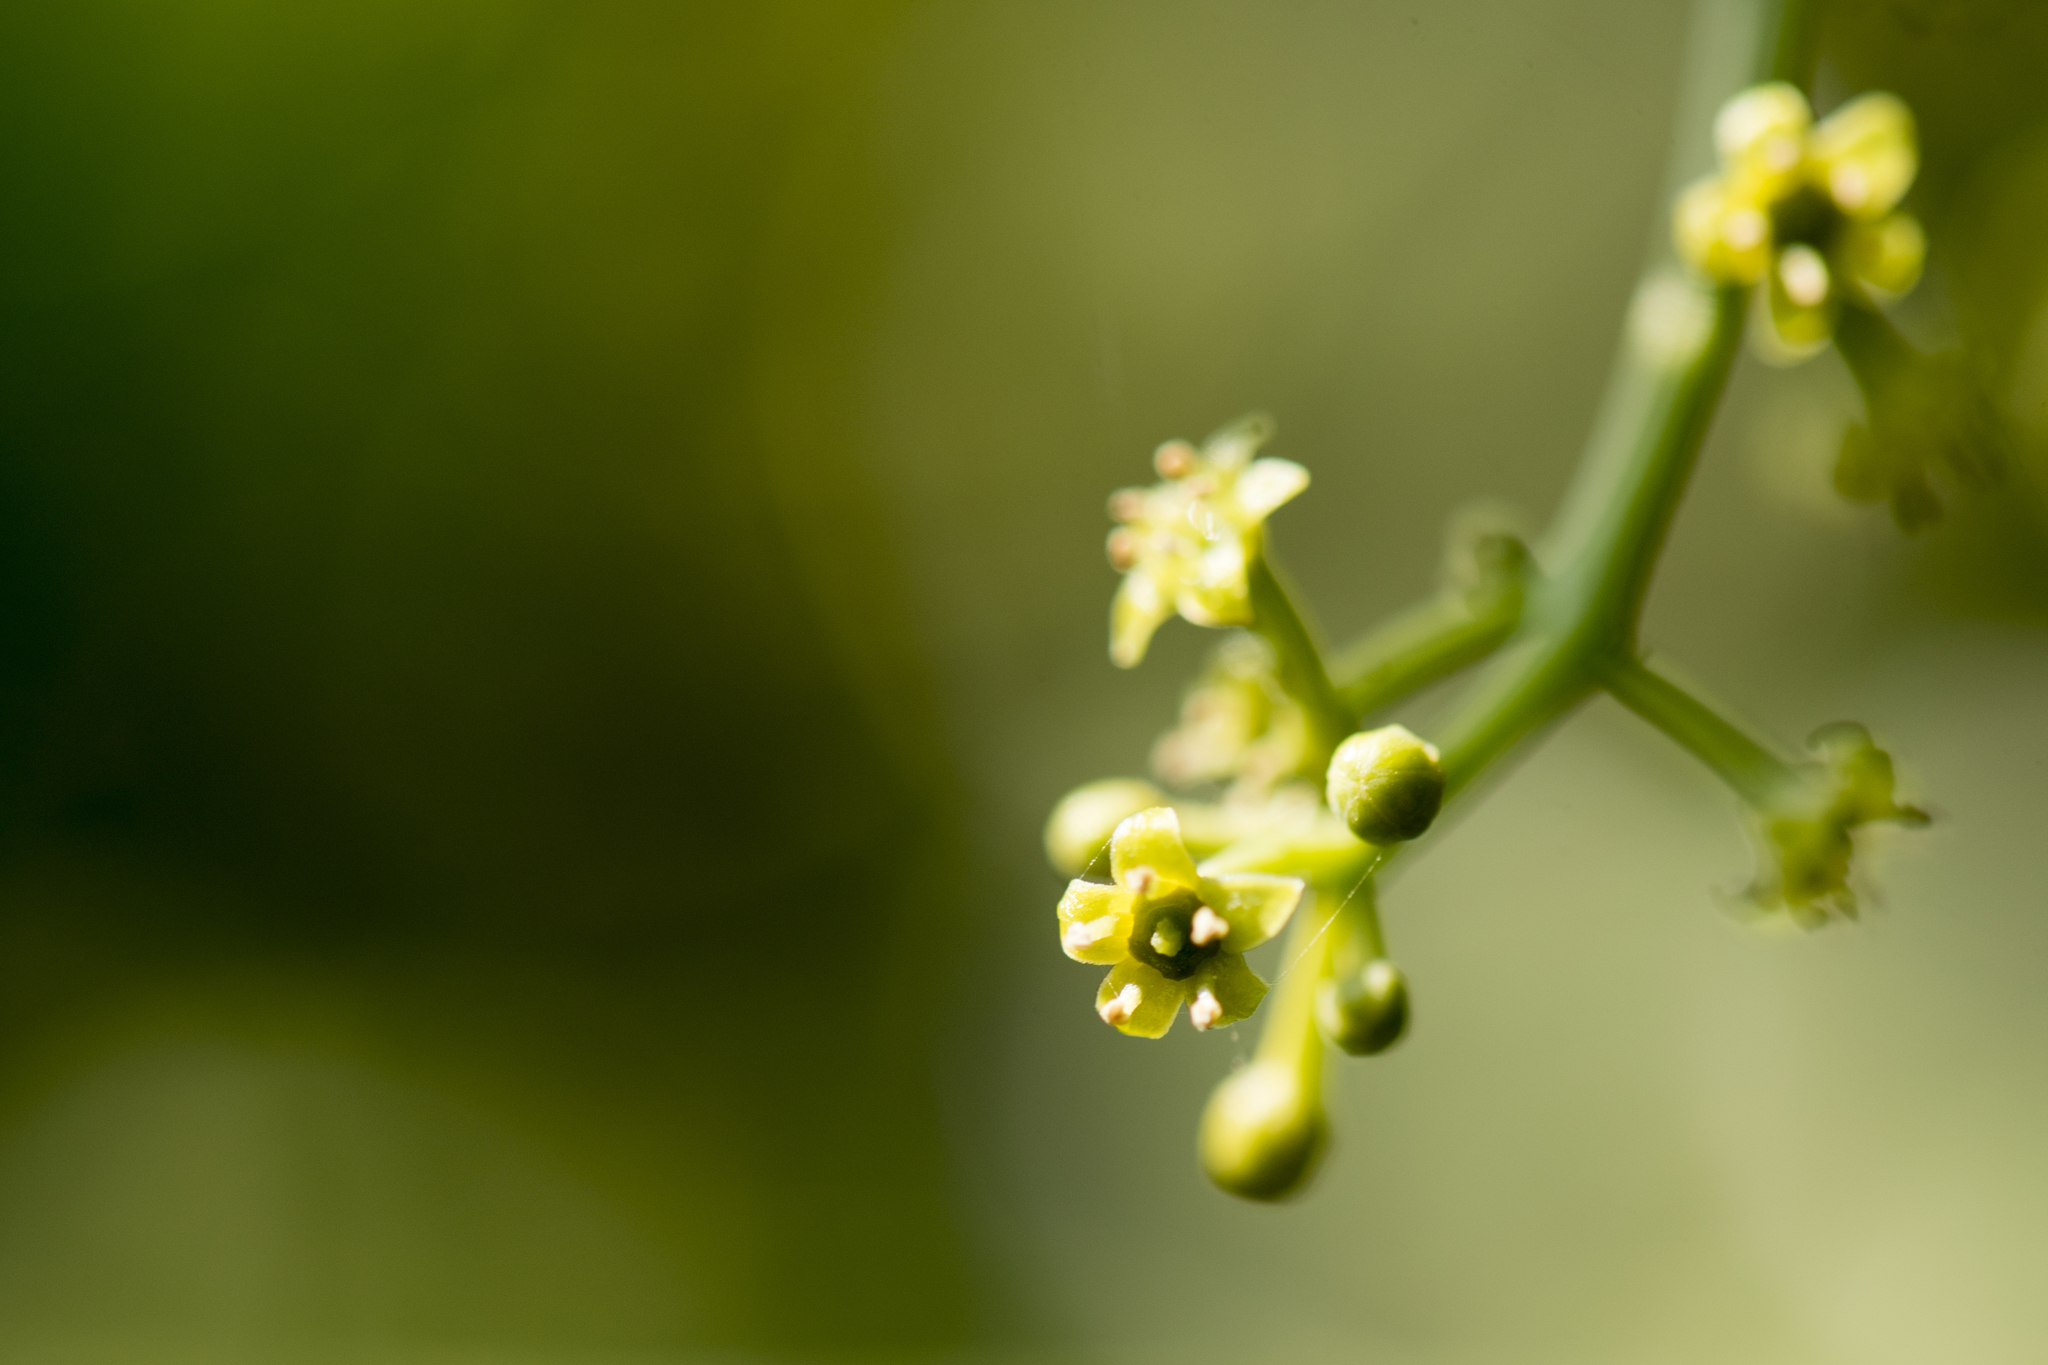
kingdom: Plantae
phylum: Tracheophyta
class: Magnoliopsida
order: Santalales
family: Opiliaceae
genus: Champereia
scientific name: Champereia manillana
